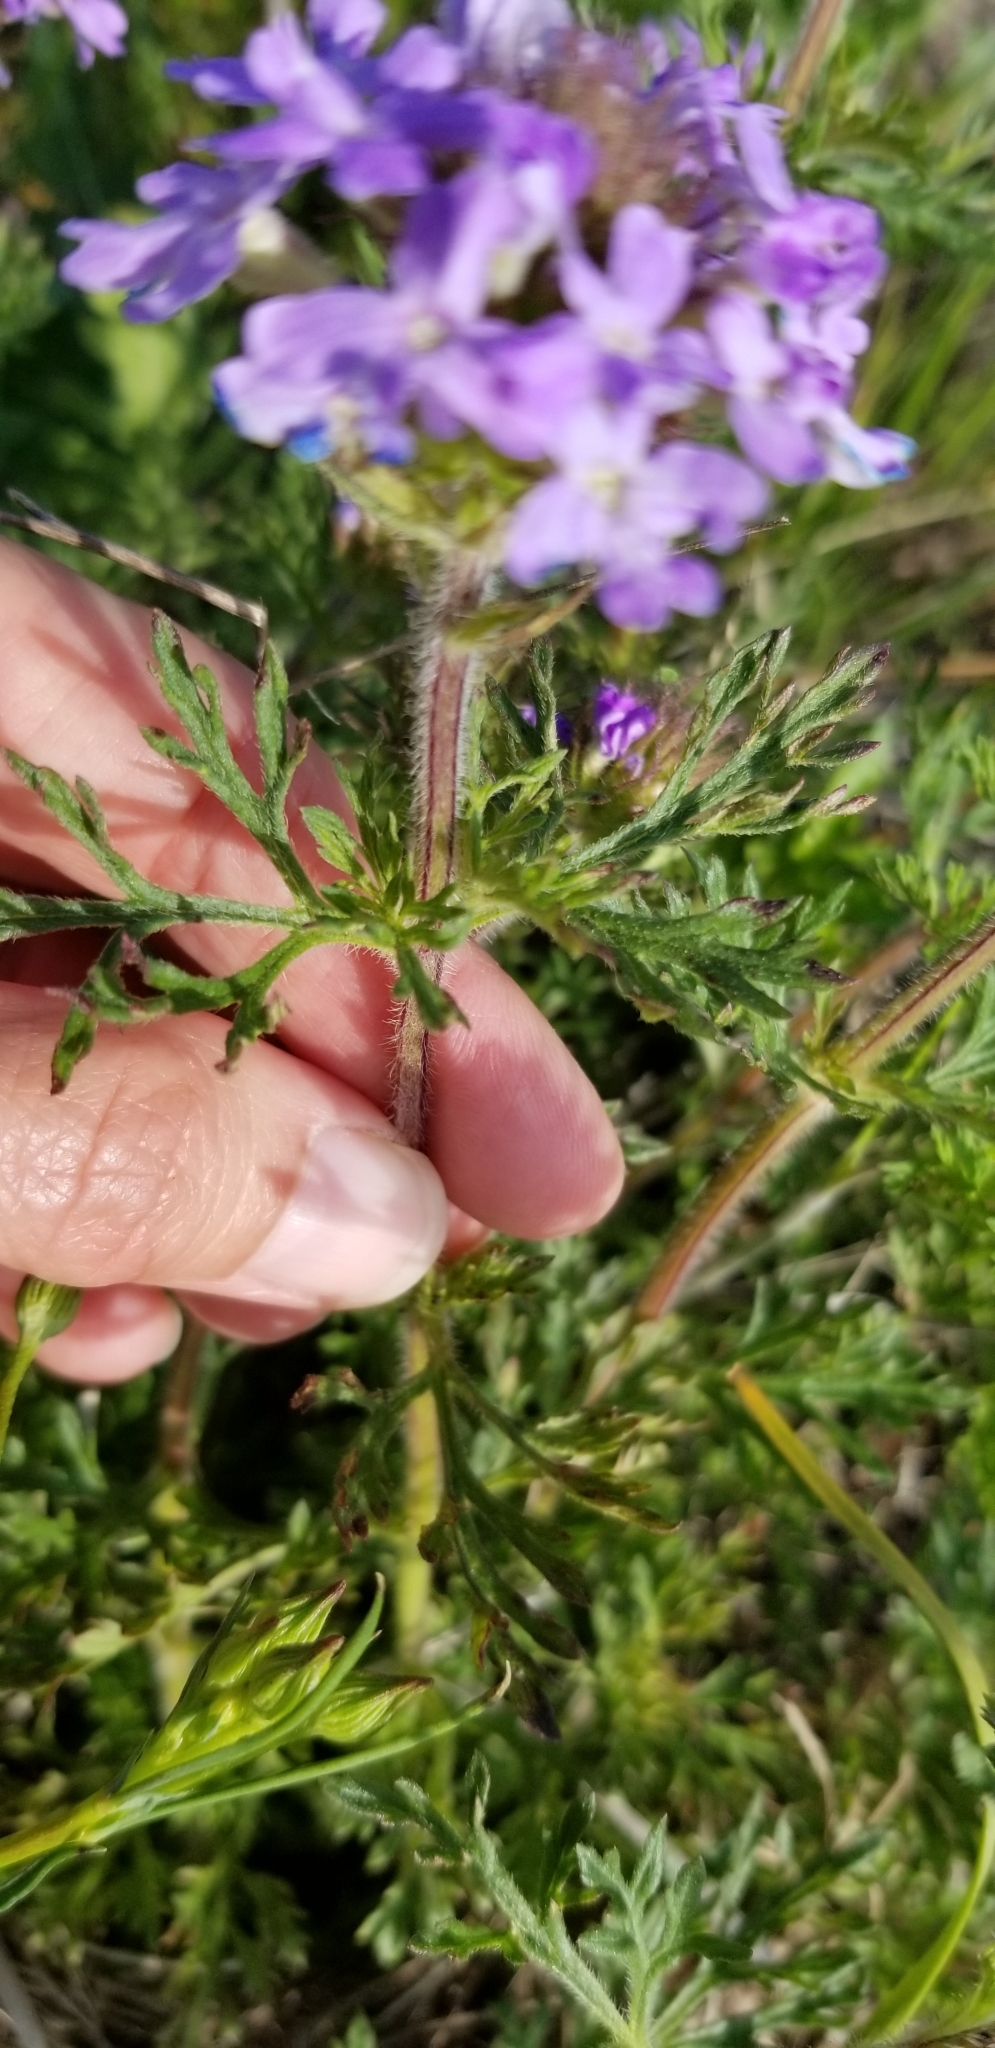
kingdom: Plantae
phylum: Tracheophyta
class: Magnoliopsida
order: Lamiales
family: Verbenaceae
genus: Verbena
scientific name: Verbena bipinnatifida
